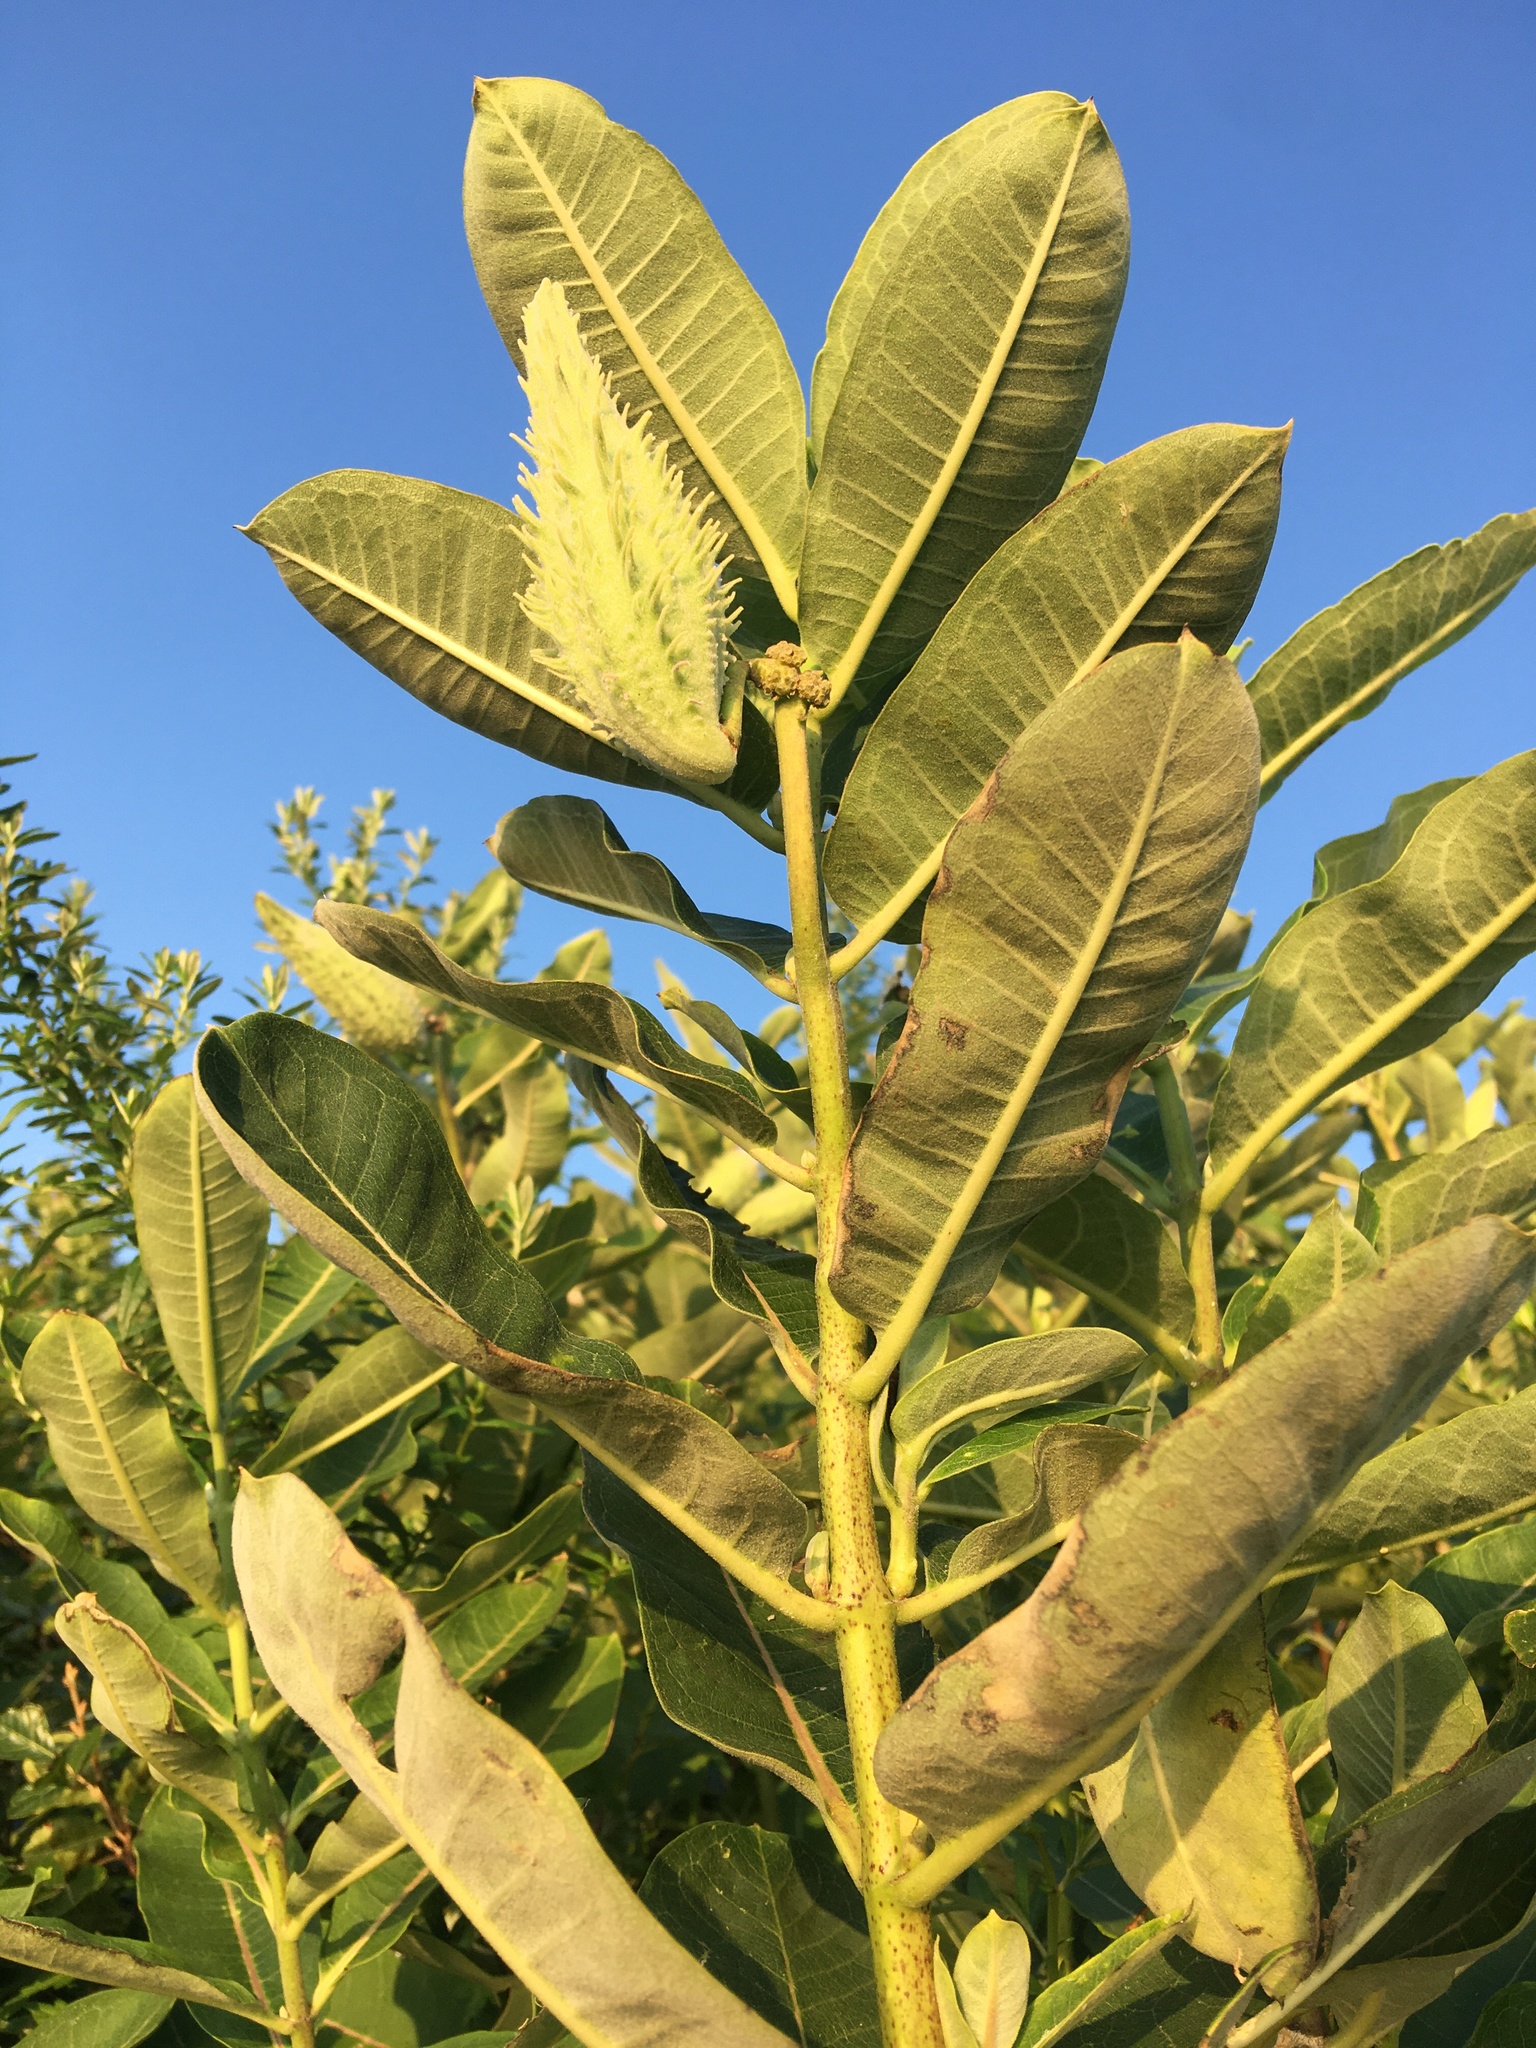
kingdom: Plantae
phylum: Tracheophyta
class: Magnoliopsida
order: Gentianales
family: Apocynaceae
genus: Asclepias
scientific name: Asclepias syriaca
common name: Common milkweed
